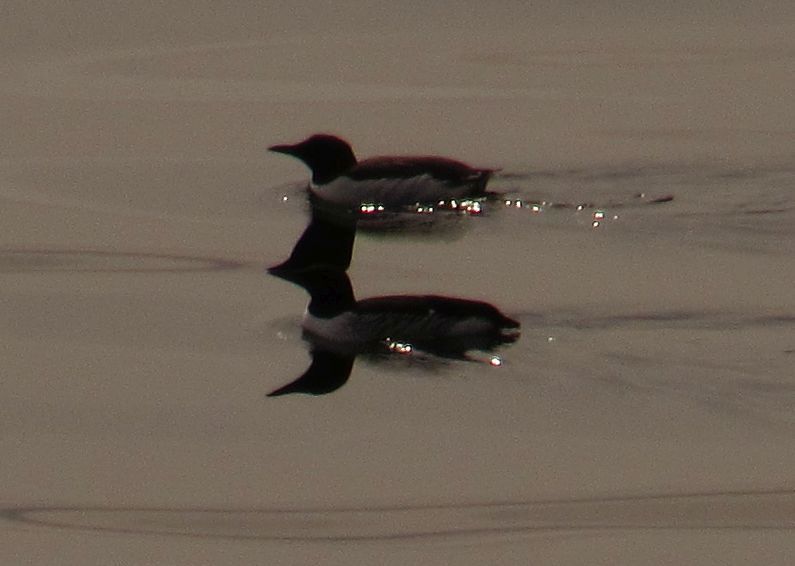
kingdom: Animalia
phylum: Chordata
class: Aves
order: Charadriiformes
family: Alcidae
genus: Uria
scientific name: Uria aalge
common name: Common murre
